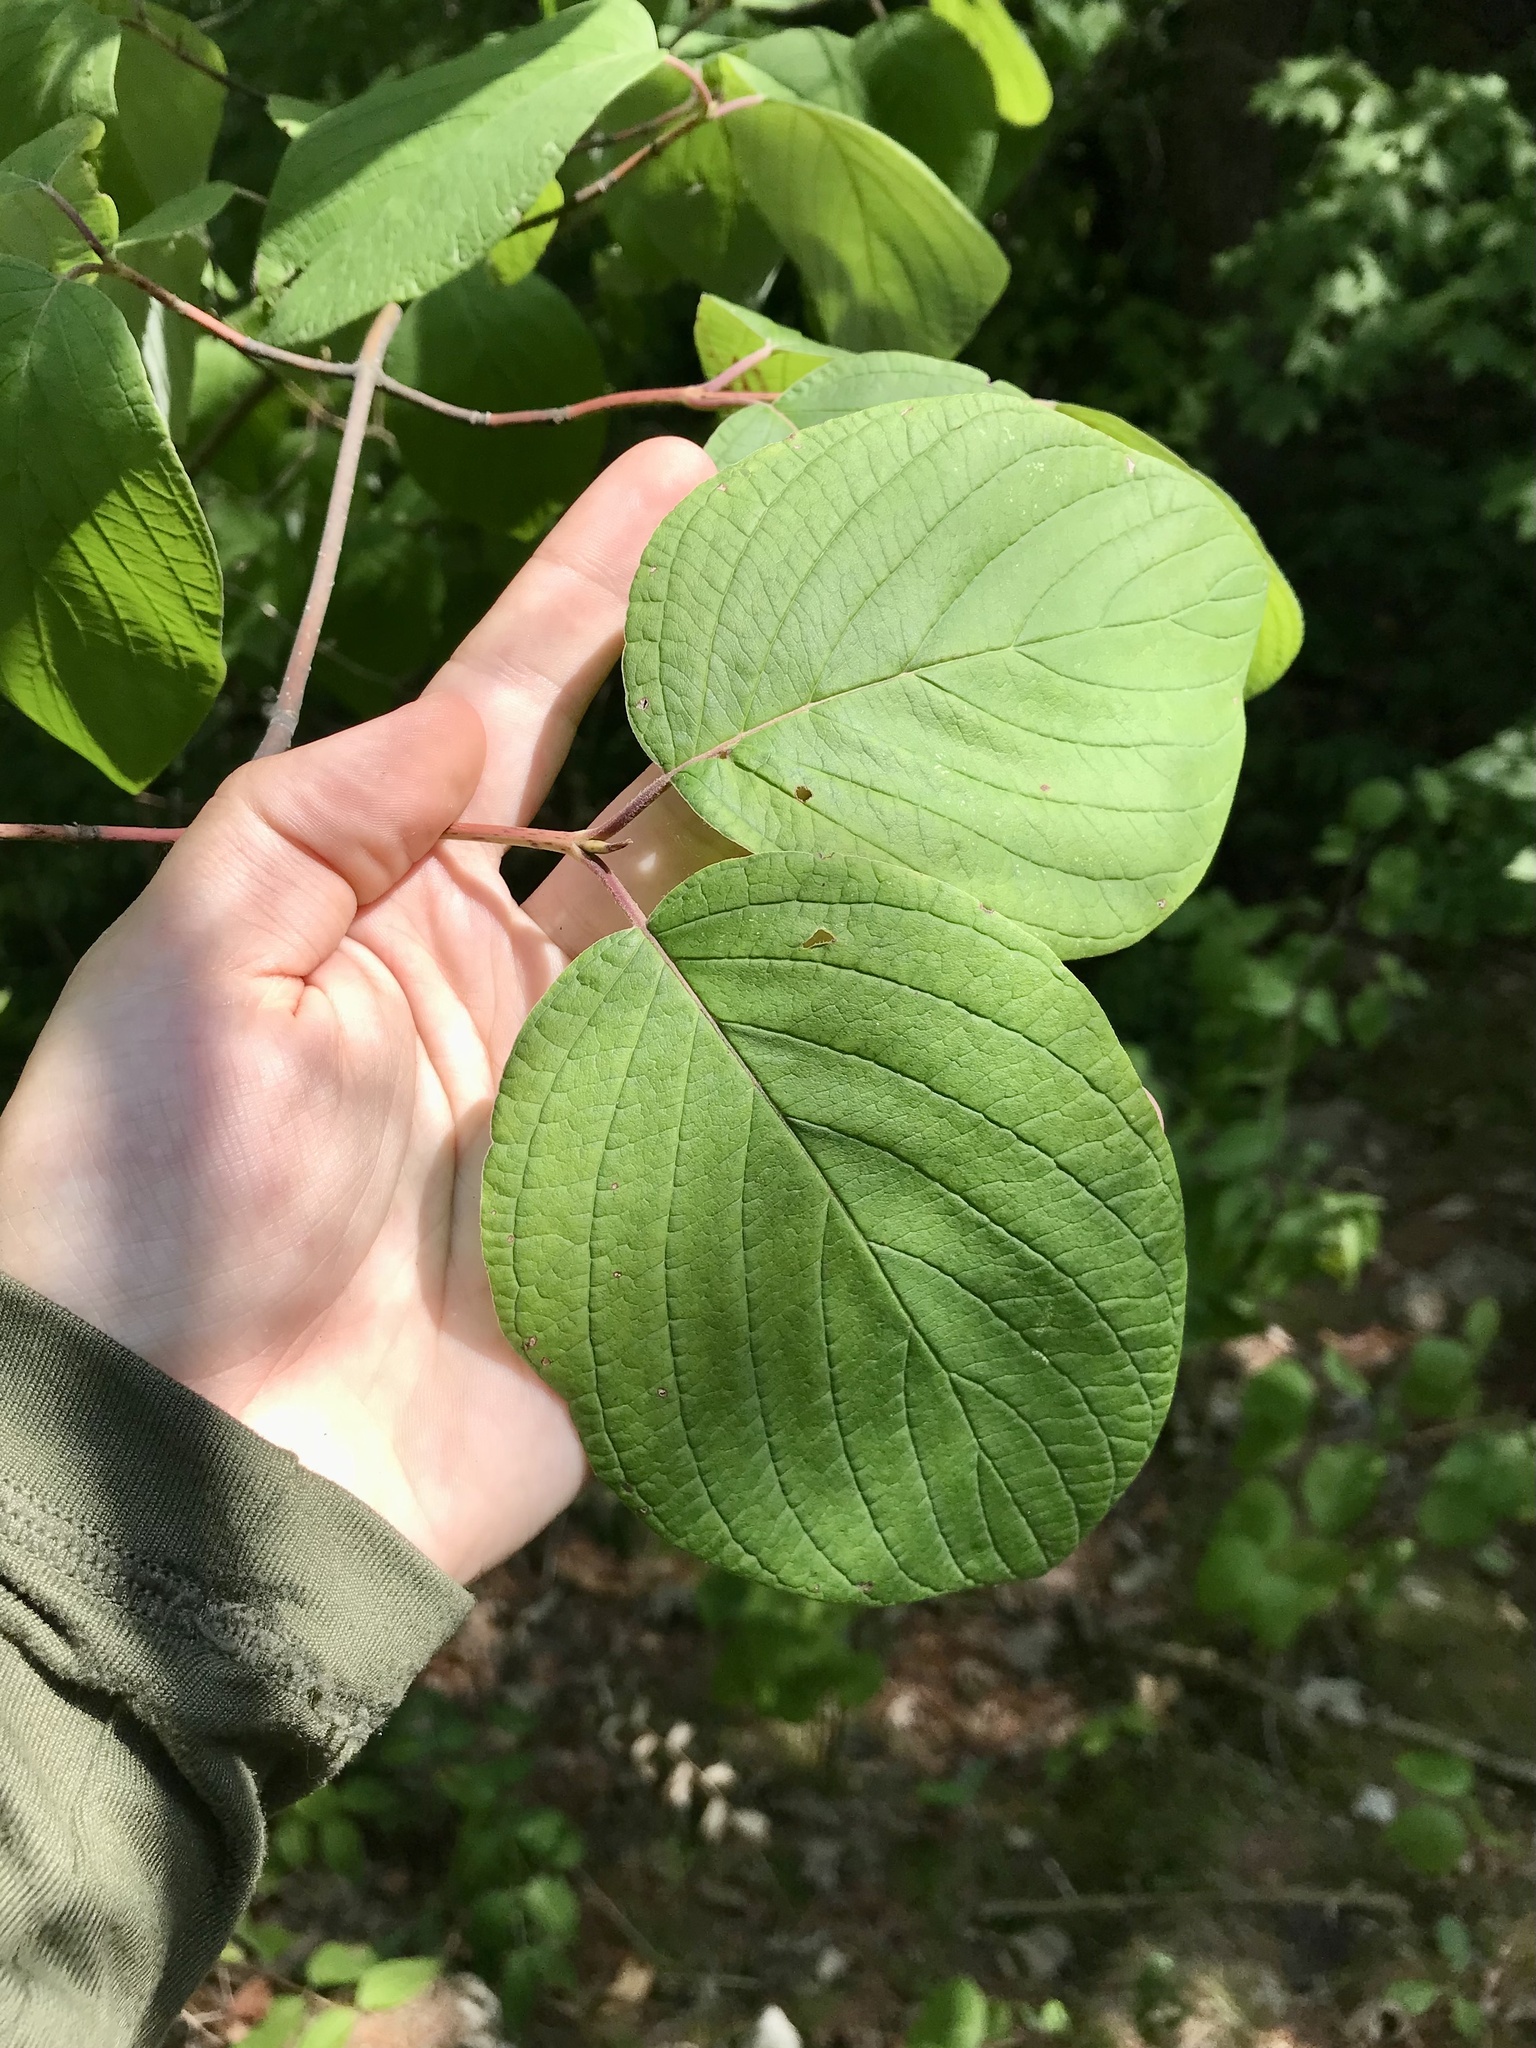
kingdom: Plantae
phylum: Tracheophyta
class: Magnoliopsida
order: Cornales
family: Cornaceae
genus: Cornus
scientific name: Cornus rugosa
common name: Round-leaf dogwood
